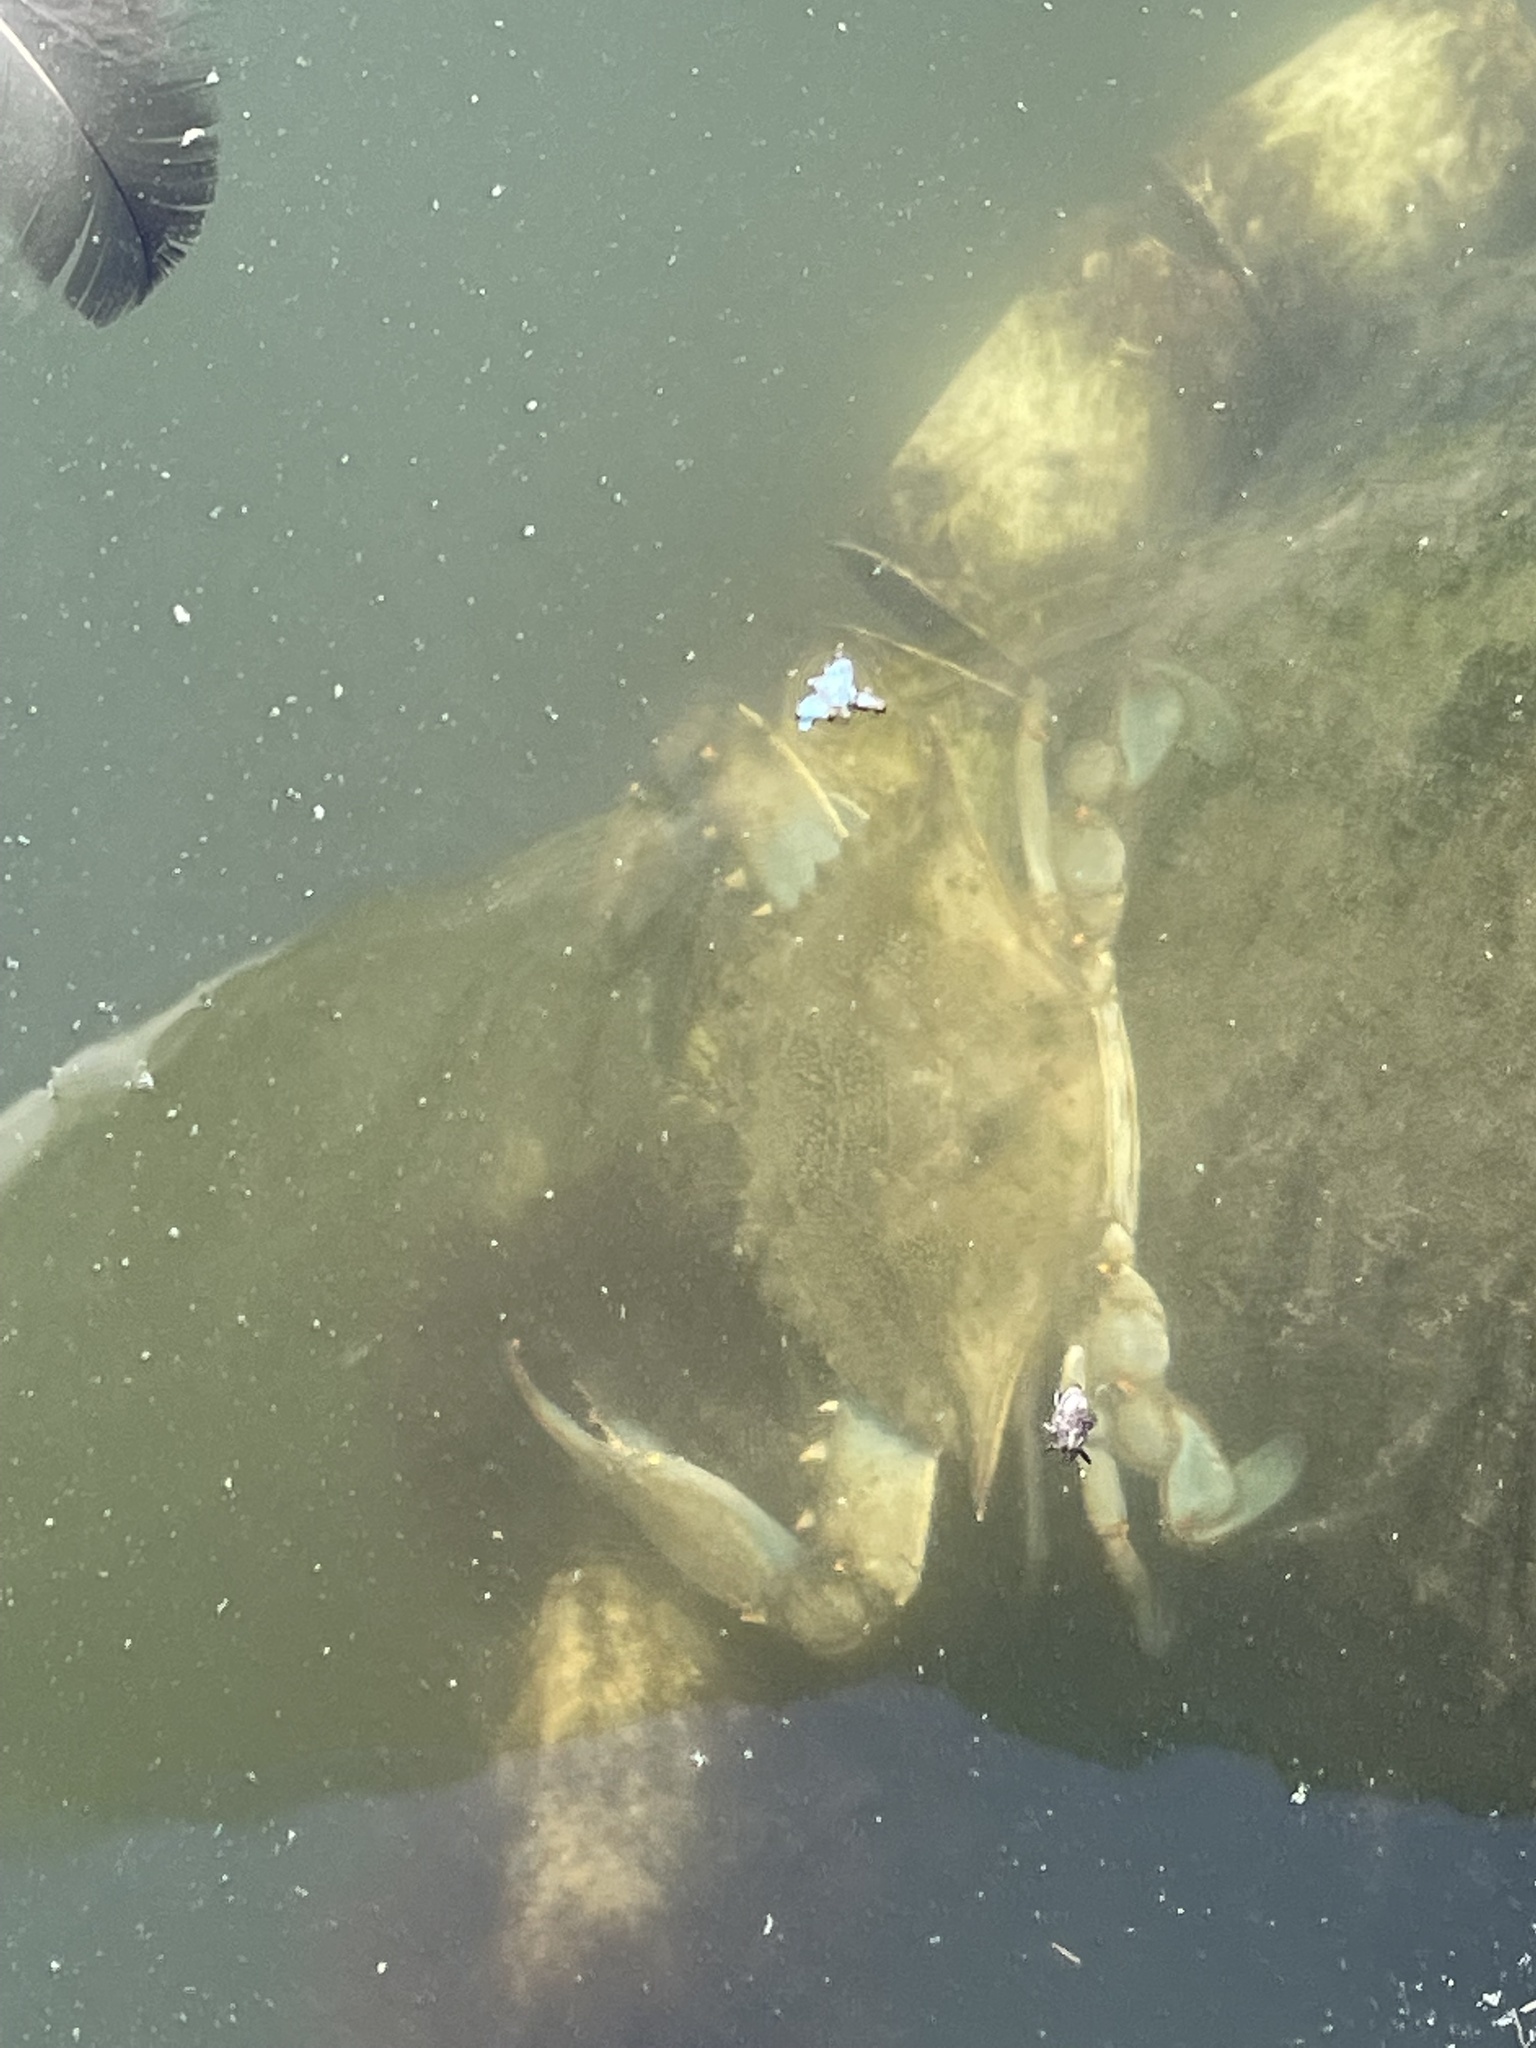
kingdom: Animalia
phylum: Arthropoda
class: Malacostraca
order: Decapoda
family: Portunidae
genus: Callinectes
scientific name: Callinectes sapidus
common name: Blue crab
